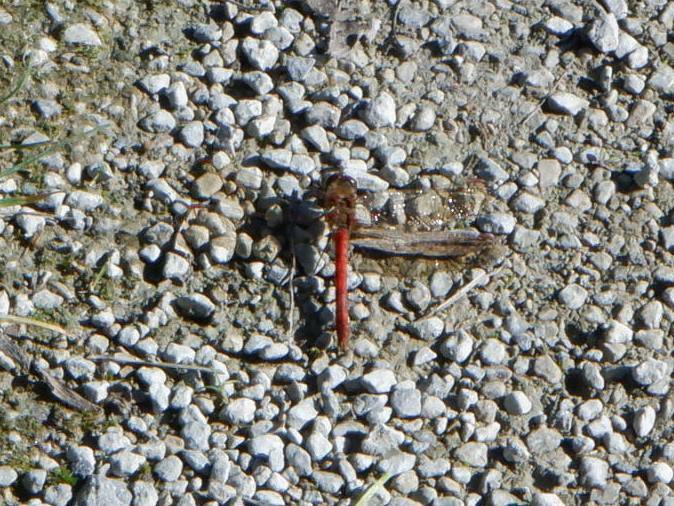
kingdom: Animalia
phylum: Arthropoda
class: Insecta
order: Odonata
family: Libellulidae
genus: Sympetrum
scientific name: Sympetrum striolatum
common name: Common darter
